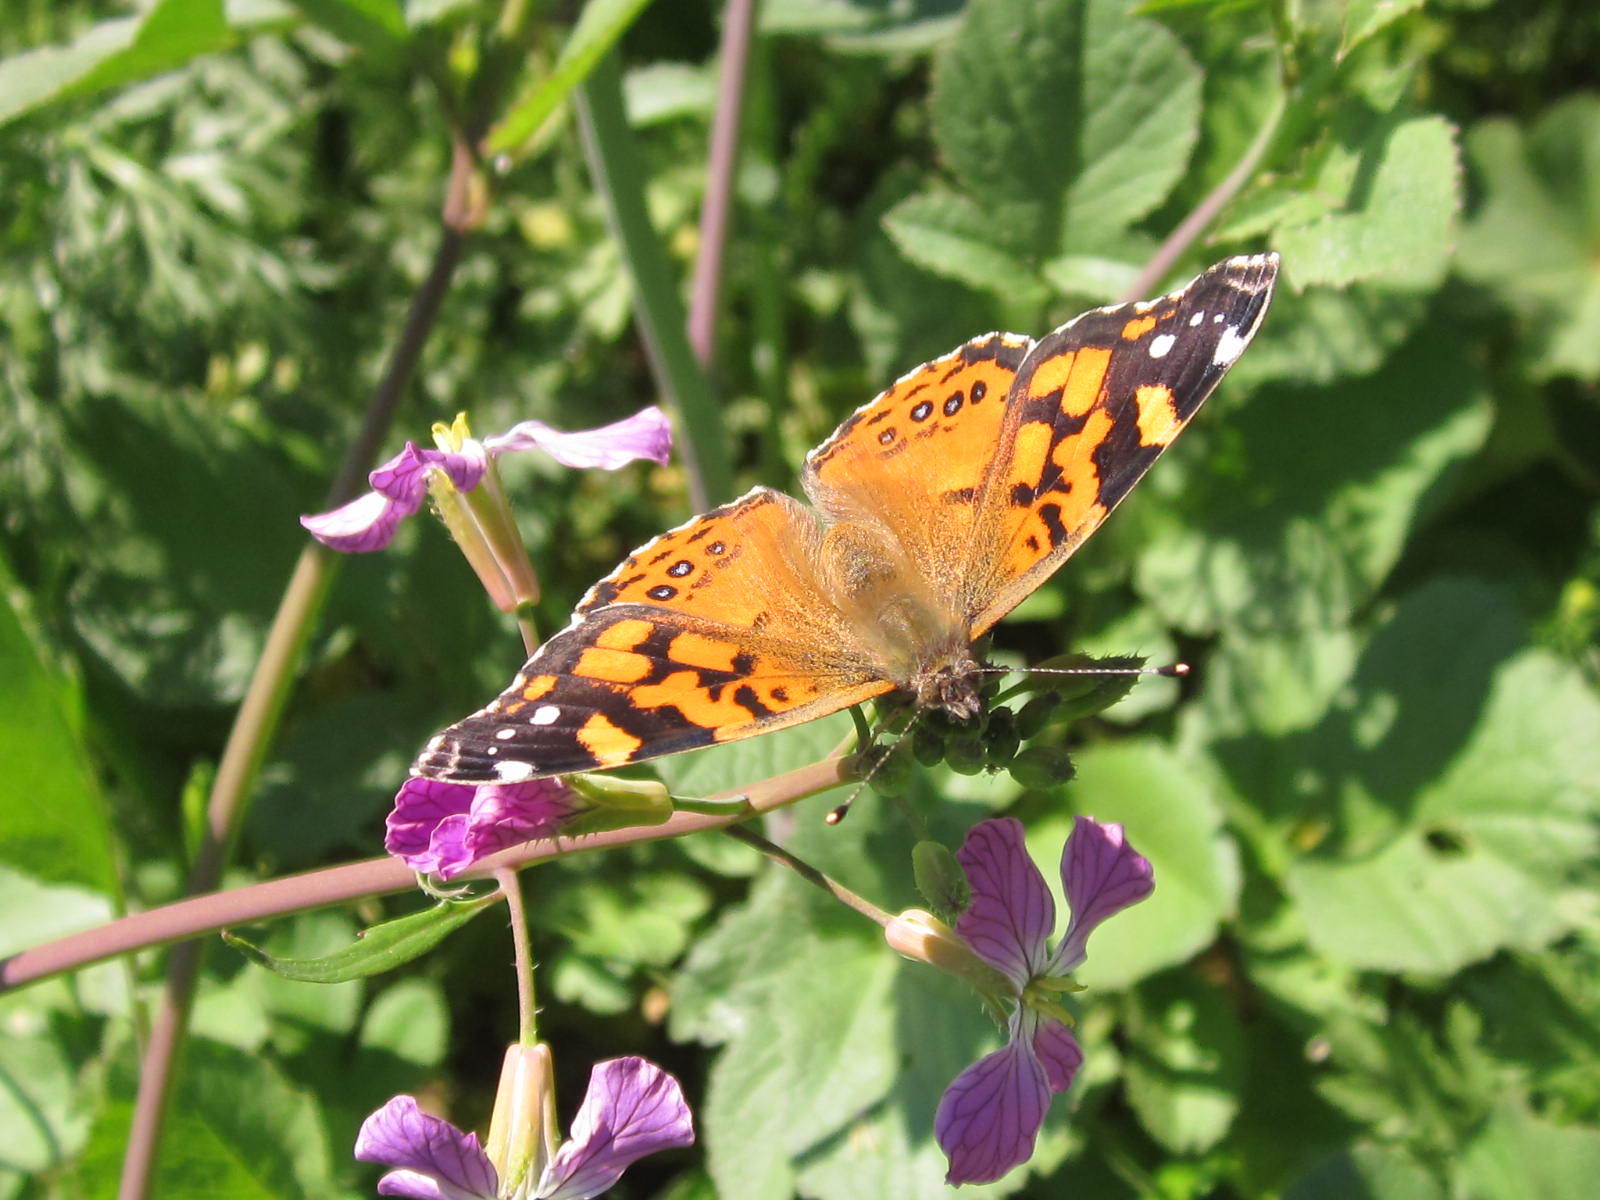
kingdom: Animalia
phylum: Arthropoda
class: Insecta
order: Lepidoptera
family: Nymphalidae
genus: Vanessa
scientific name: Vanessa carye
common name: Subtropical lady
